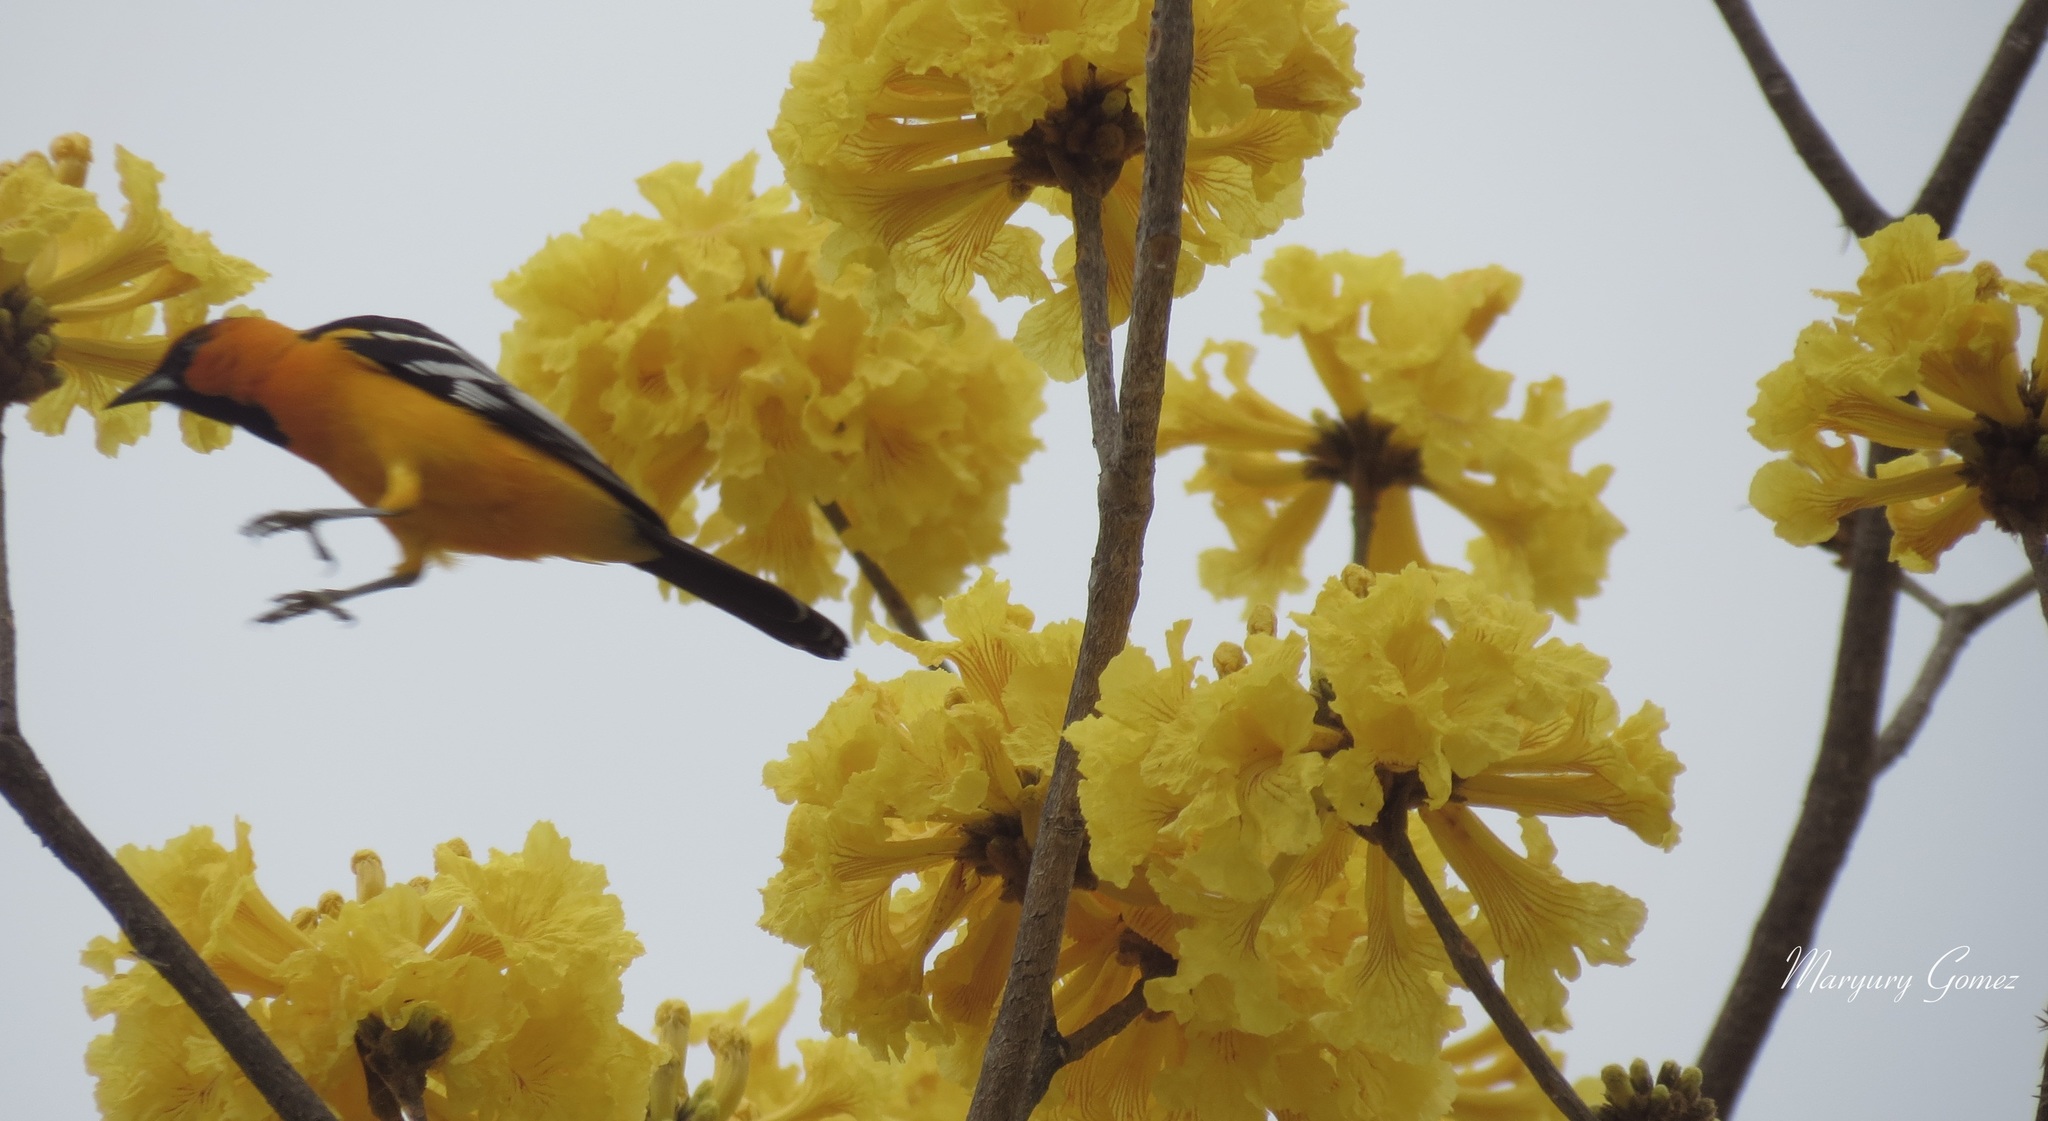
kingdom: Animalia
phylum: Chordata
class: Aves
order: Passeriformes
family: Icteridae
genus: Icterus
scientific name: Icterus gularis
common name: Altamira oriole
